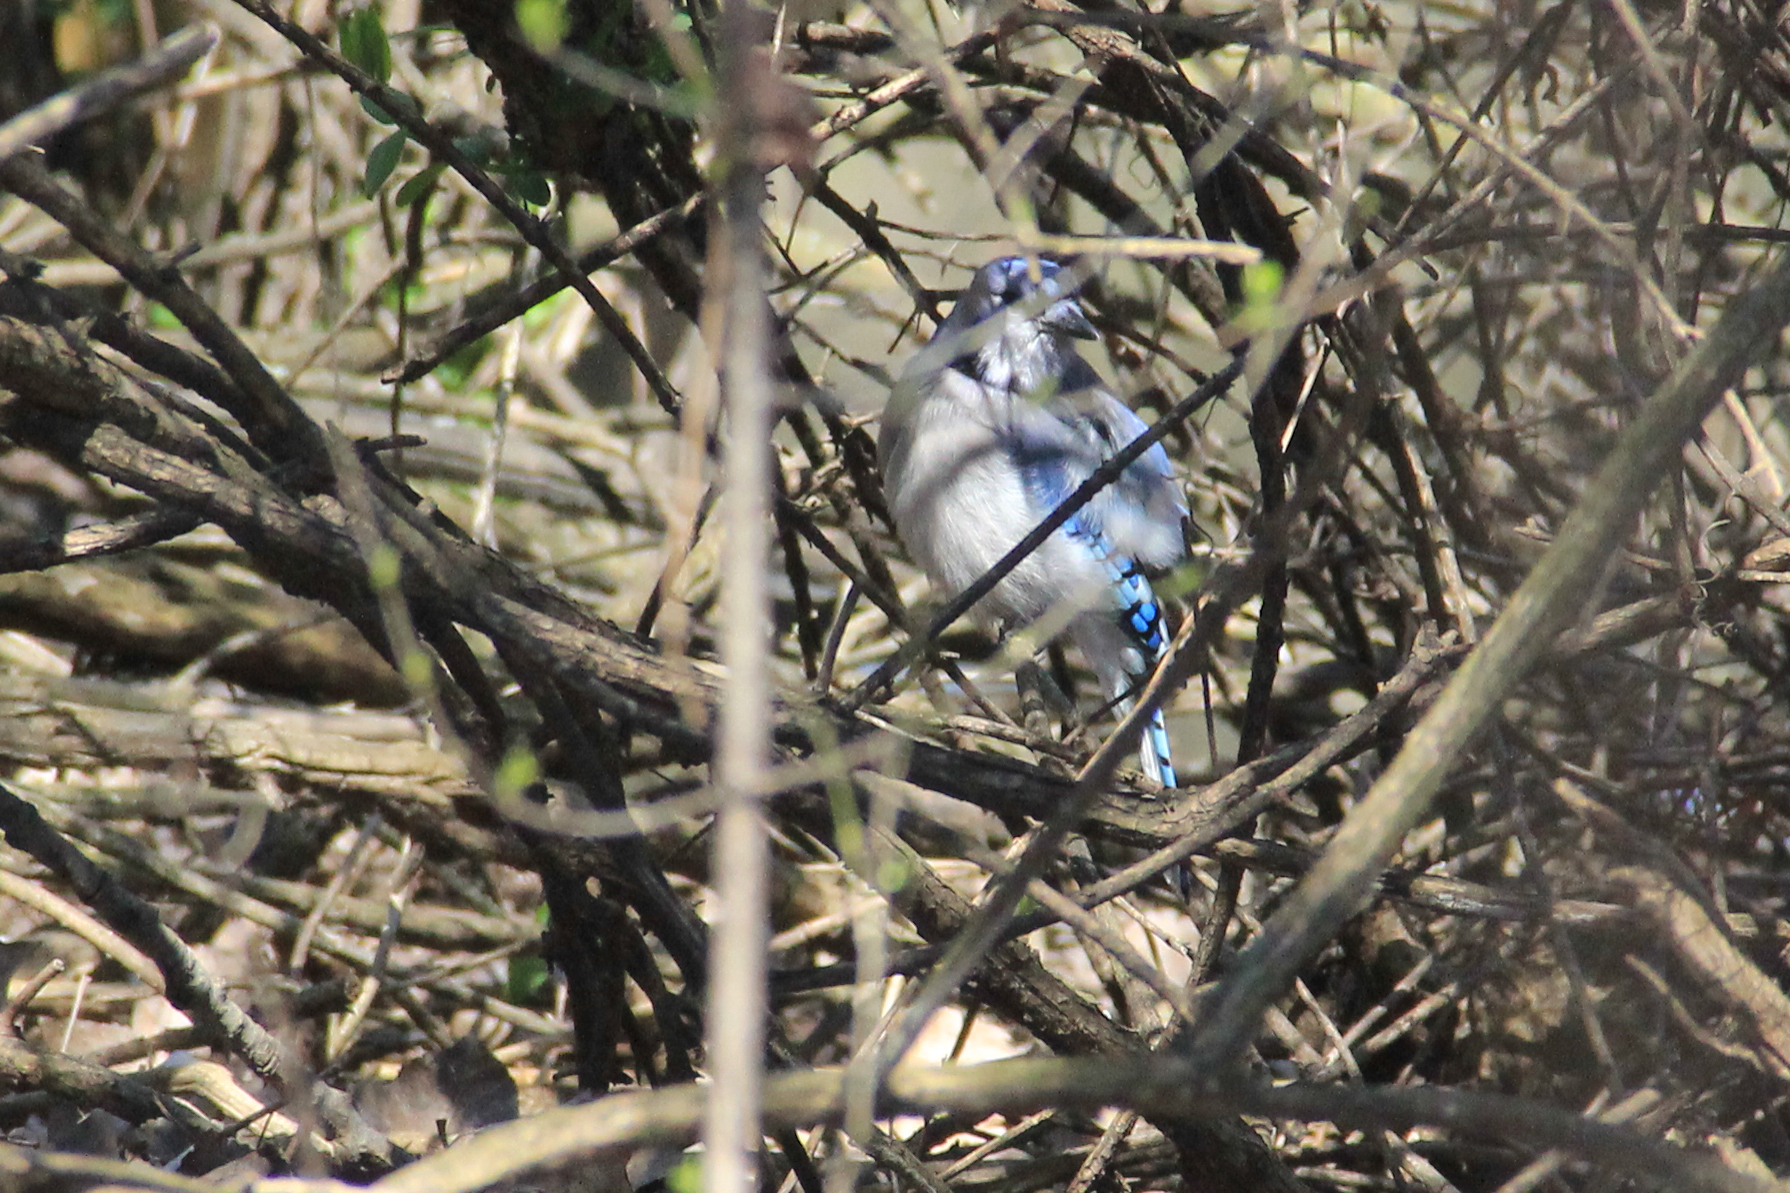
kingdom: Animalia
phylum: Chordata
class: Aves
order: Passeriformes
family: Corvidae
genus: Cyanocitta
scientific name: Cyanocitta cristata
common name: Blue jay
